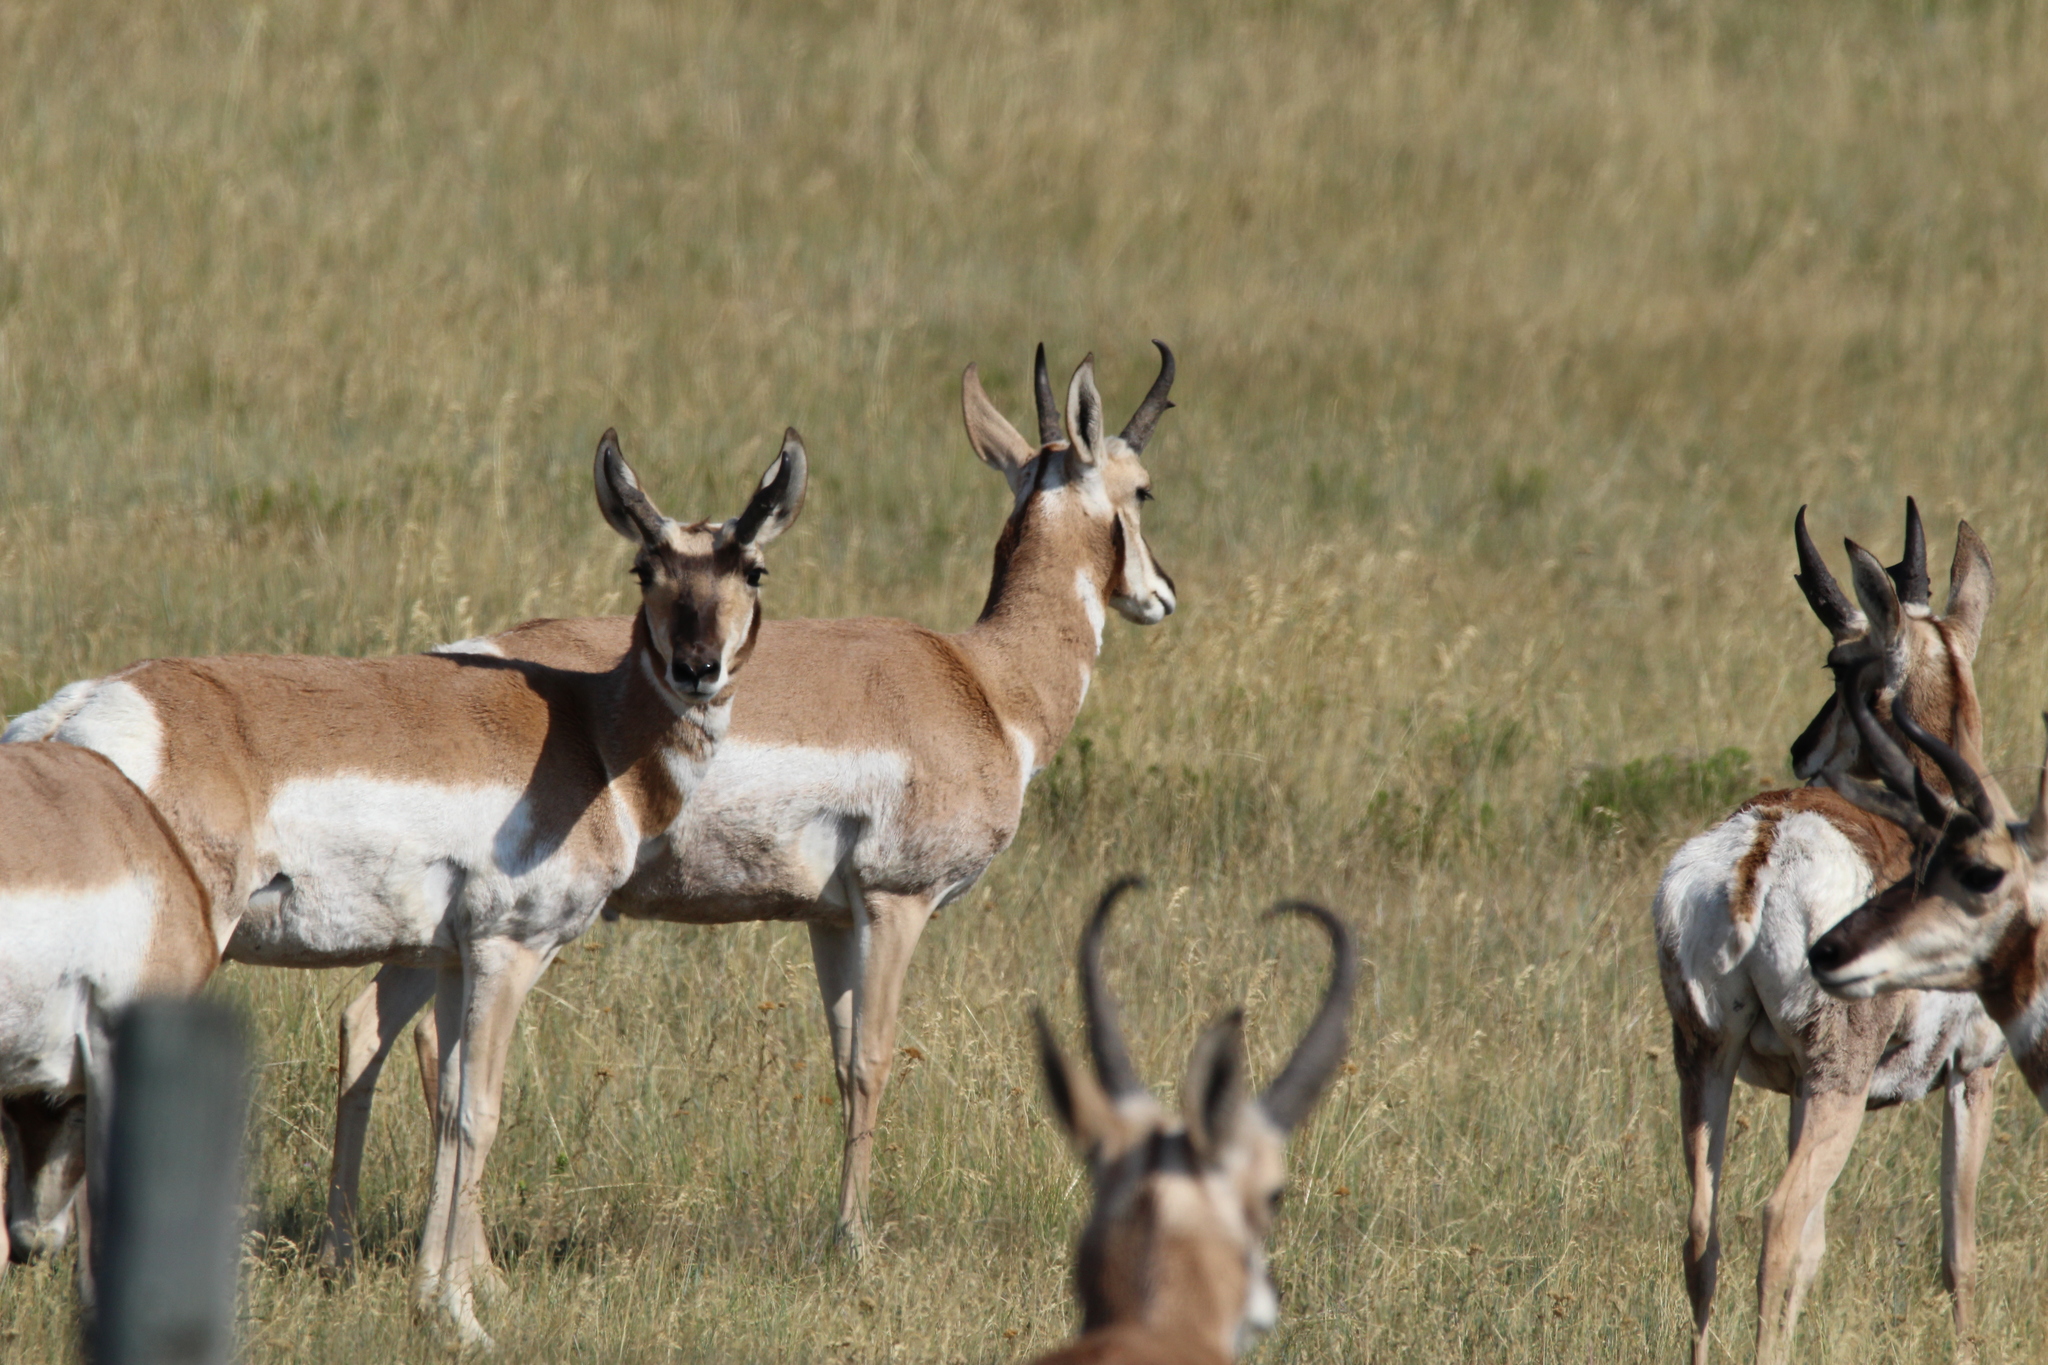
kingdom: Animalia
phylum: Chordata
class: Mammalia
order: Artiodactyla
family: Antilocapridae
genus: Antilocapra
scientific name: Antilocapra americana
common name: Pronghorn
